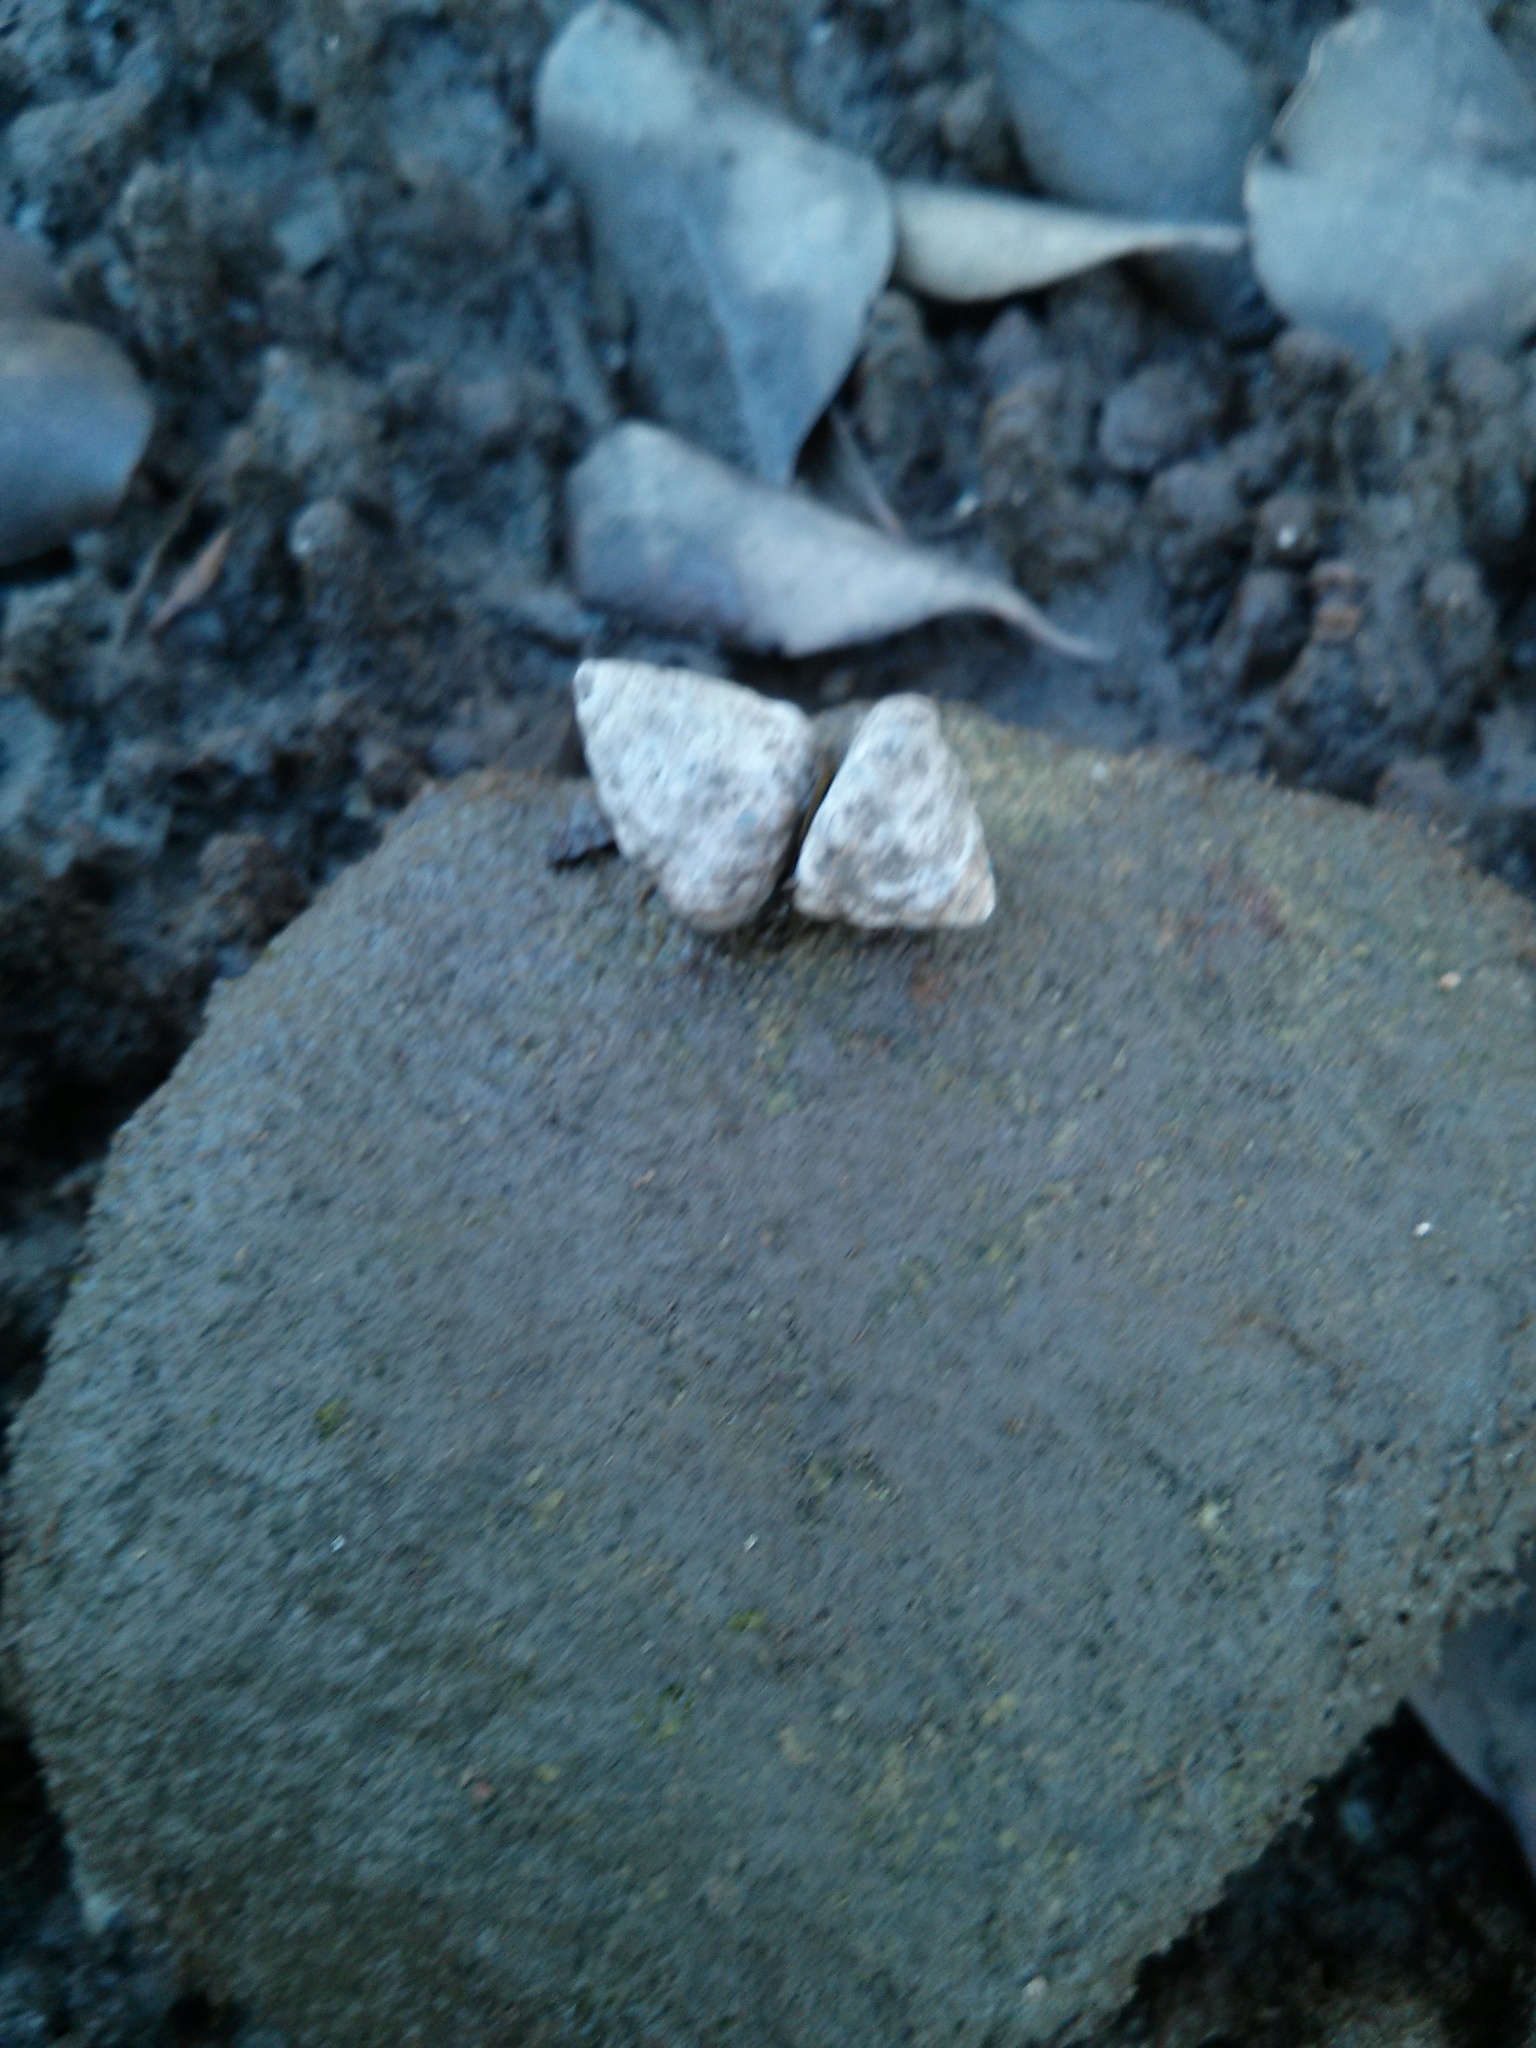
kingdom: Animalia
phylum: Mollusca
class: Gastropoda
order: Littorinimorpha
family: Littorinidae
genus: Bembicium
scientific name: Bembicium auratum
